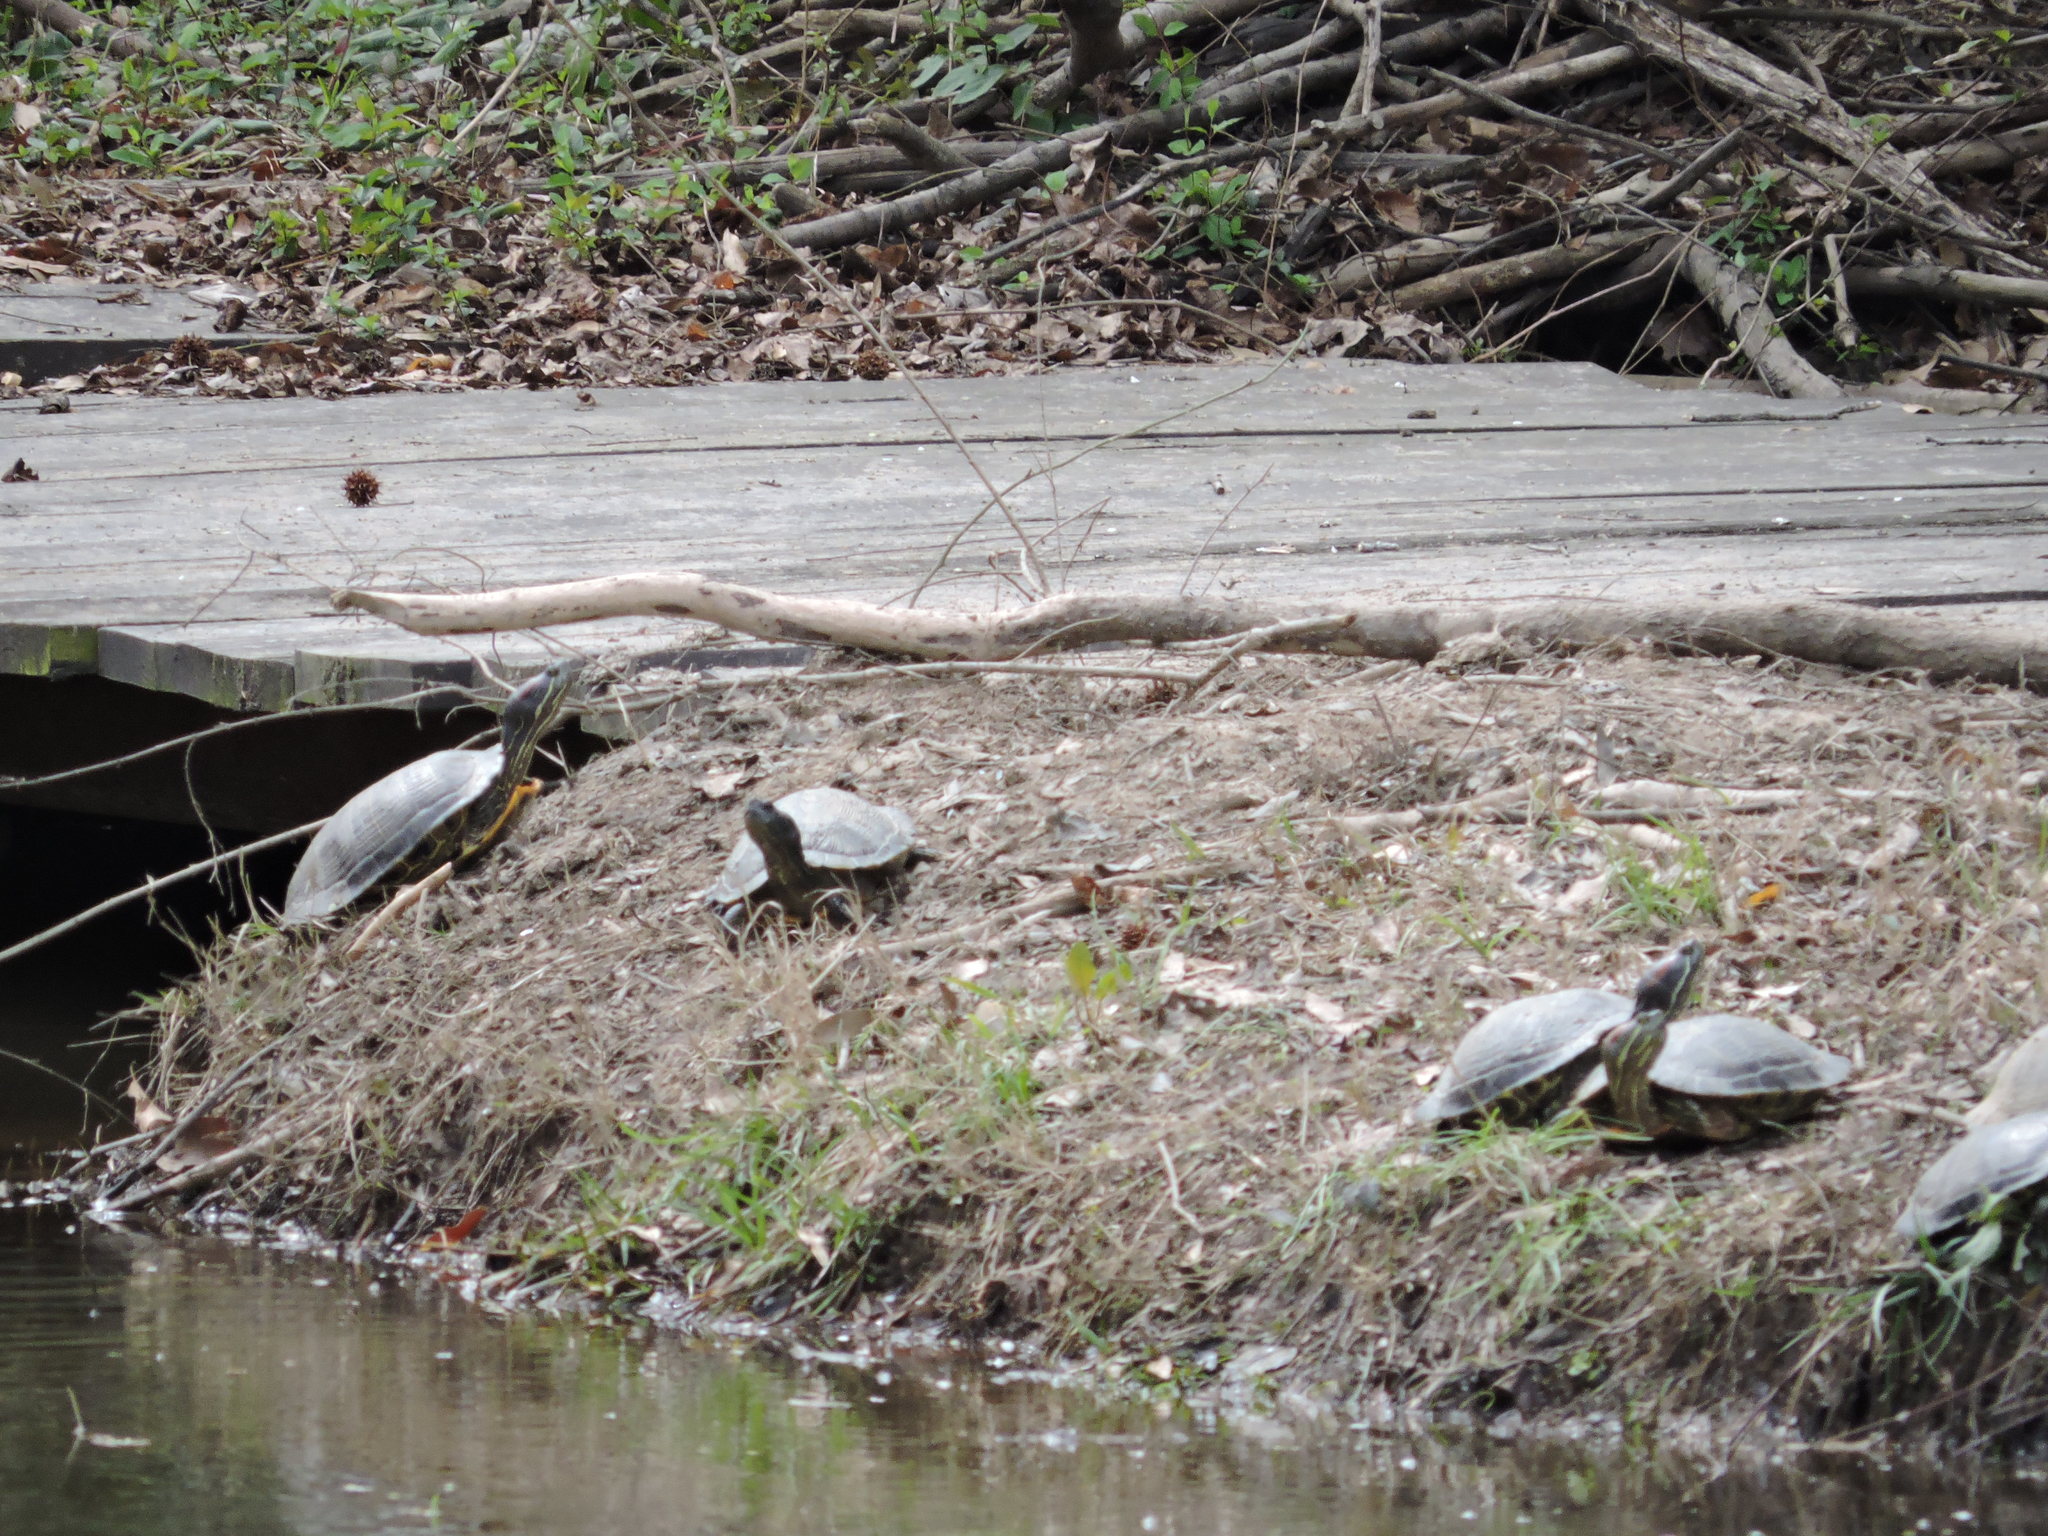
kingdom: Animalia
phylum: Chordata
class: Testudines
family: Emydidae
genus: Trachemys
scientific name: Trachemys scripta
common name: Slider
